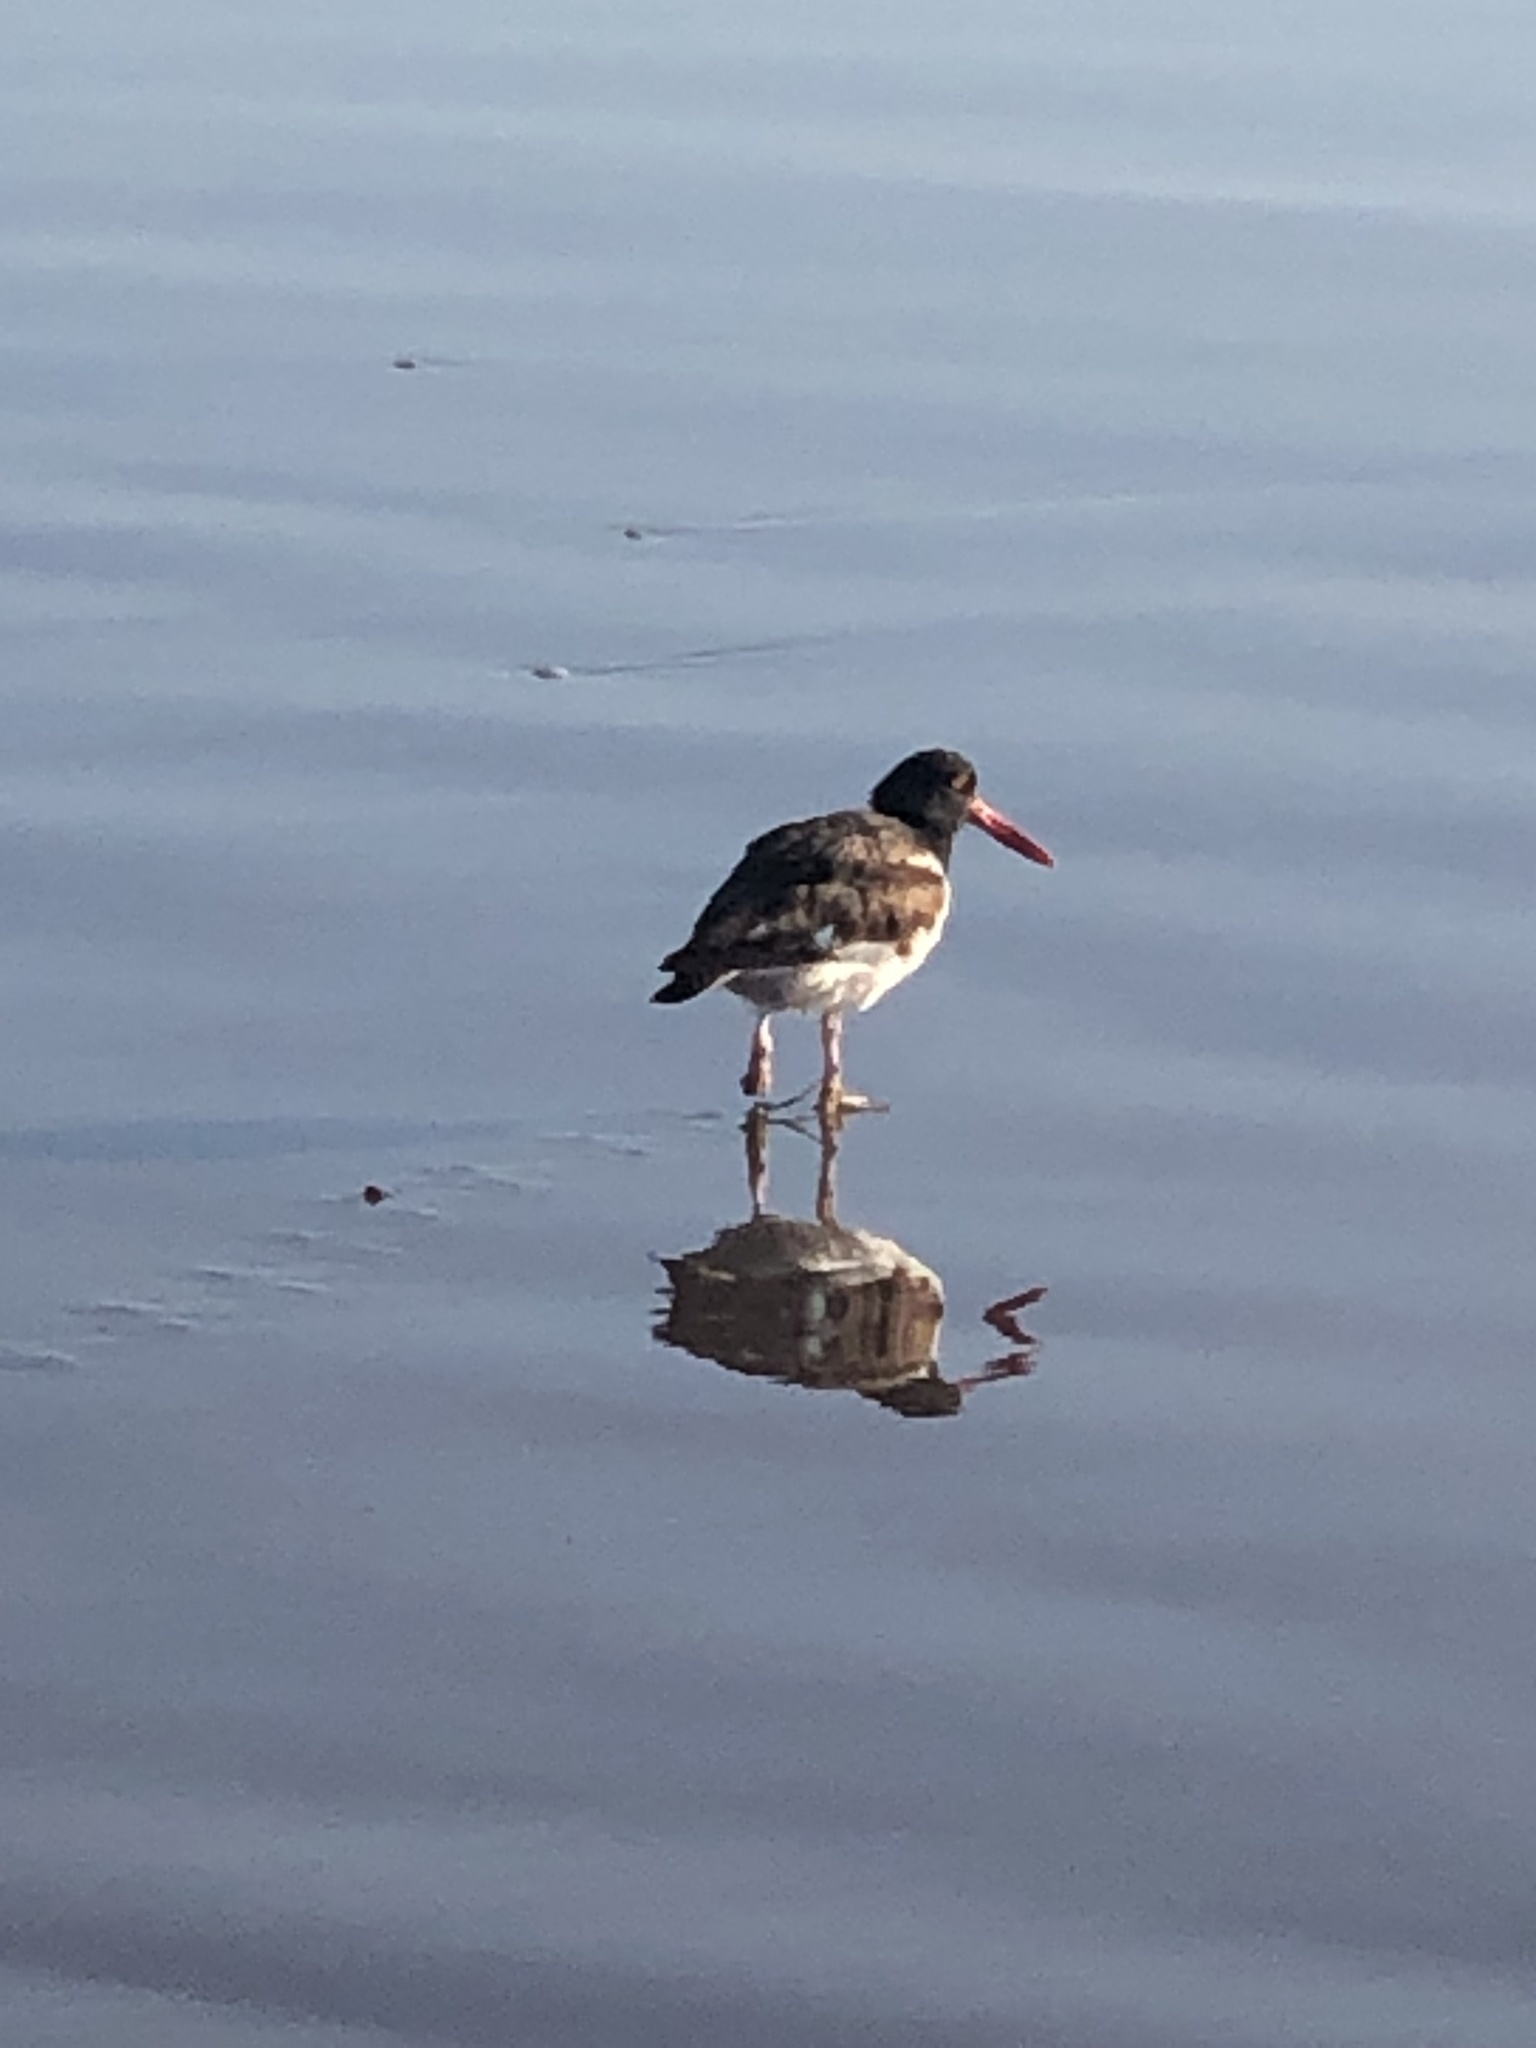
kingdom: Animalia
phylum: Chordata
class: Aves
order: Charadriiformes
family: Haematopodidae
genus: Haematopus
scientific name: Haematopus palliatus
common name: American oystercatcher
